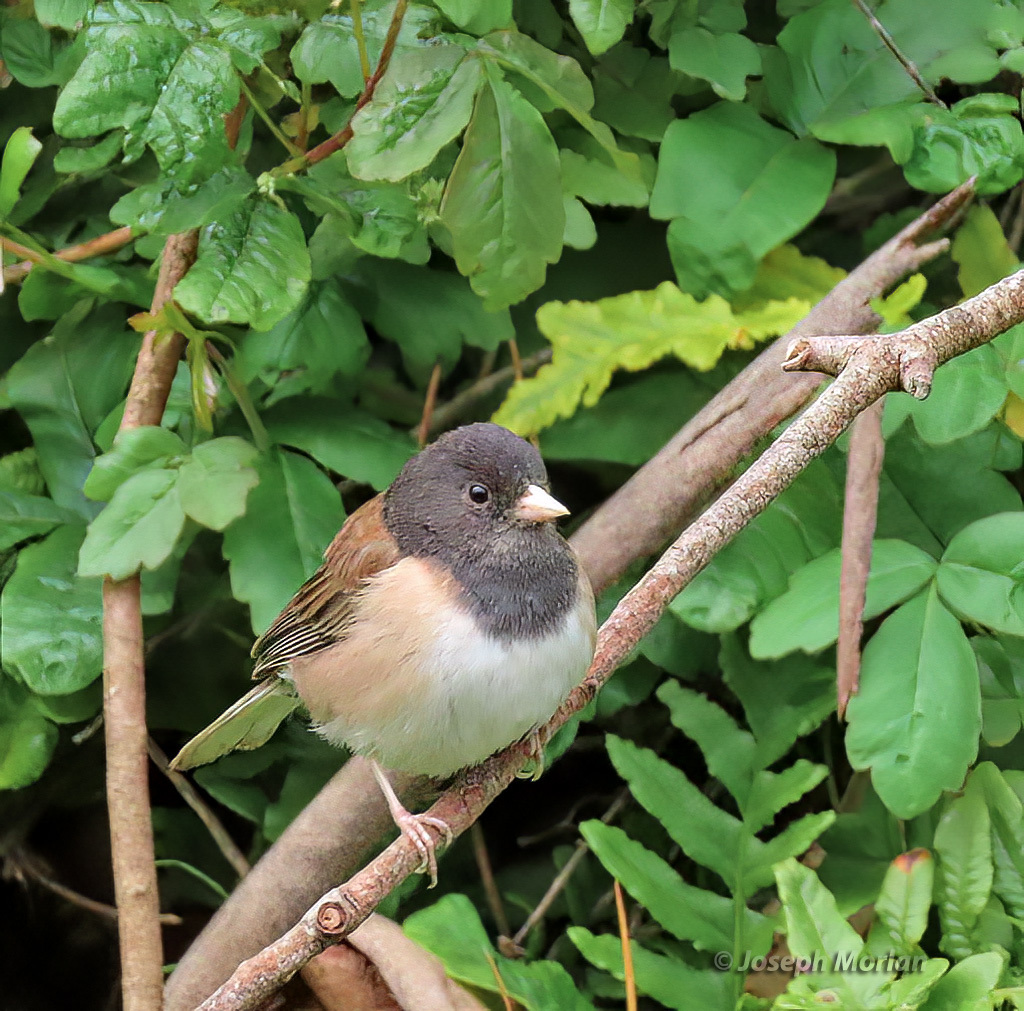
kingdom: Animalia
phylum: Chordata
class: Aves
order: Passeriformes
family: Passerellidae
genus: Junco
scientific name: Junco hyemalis
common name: Dark-eyed junco
